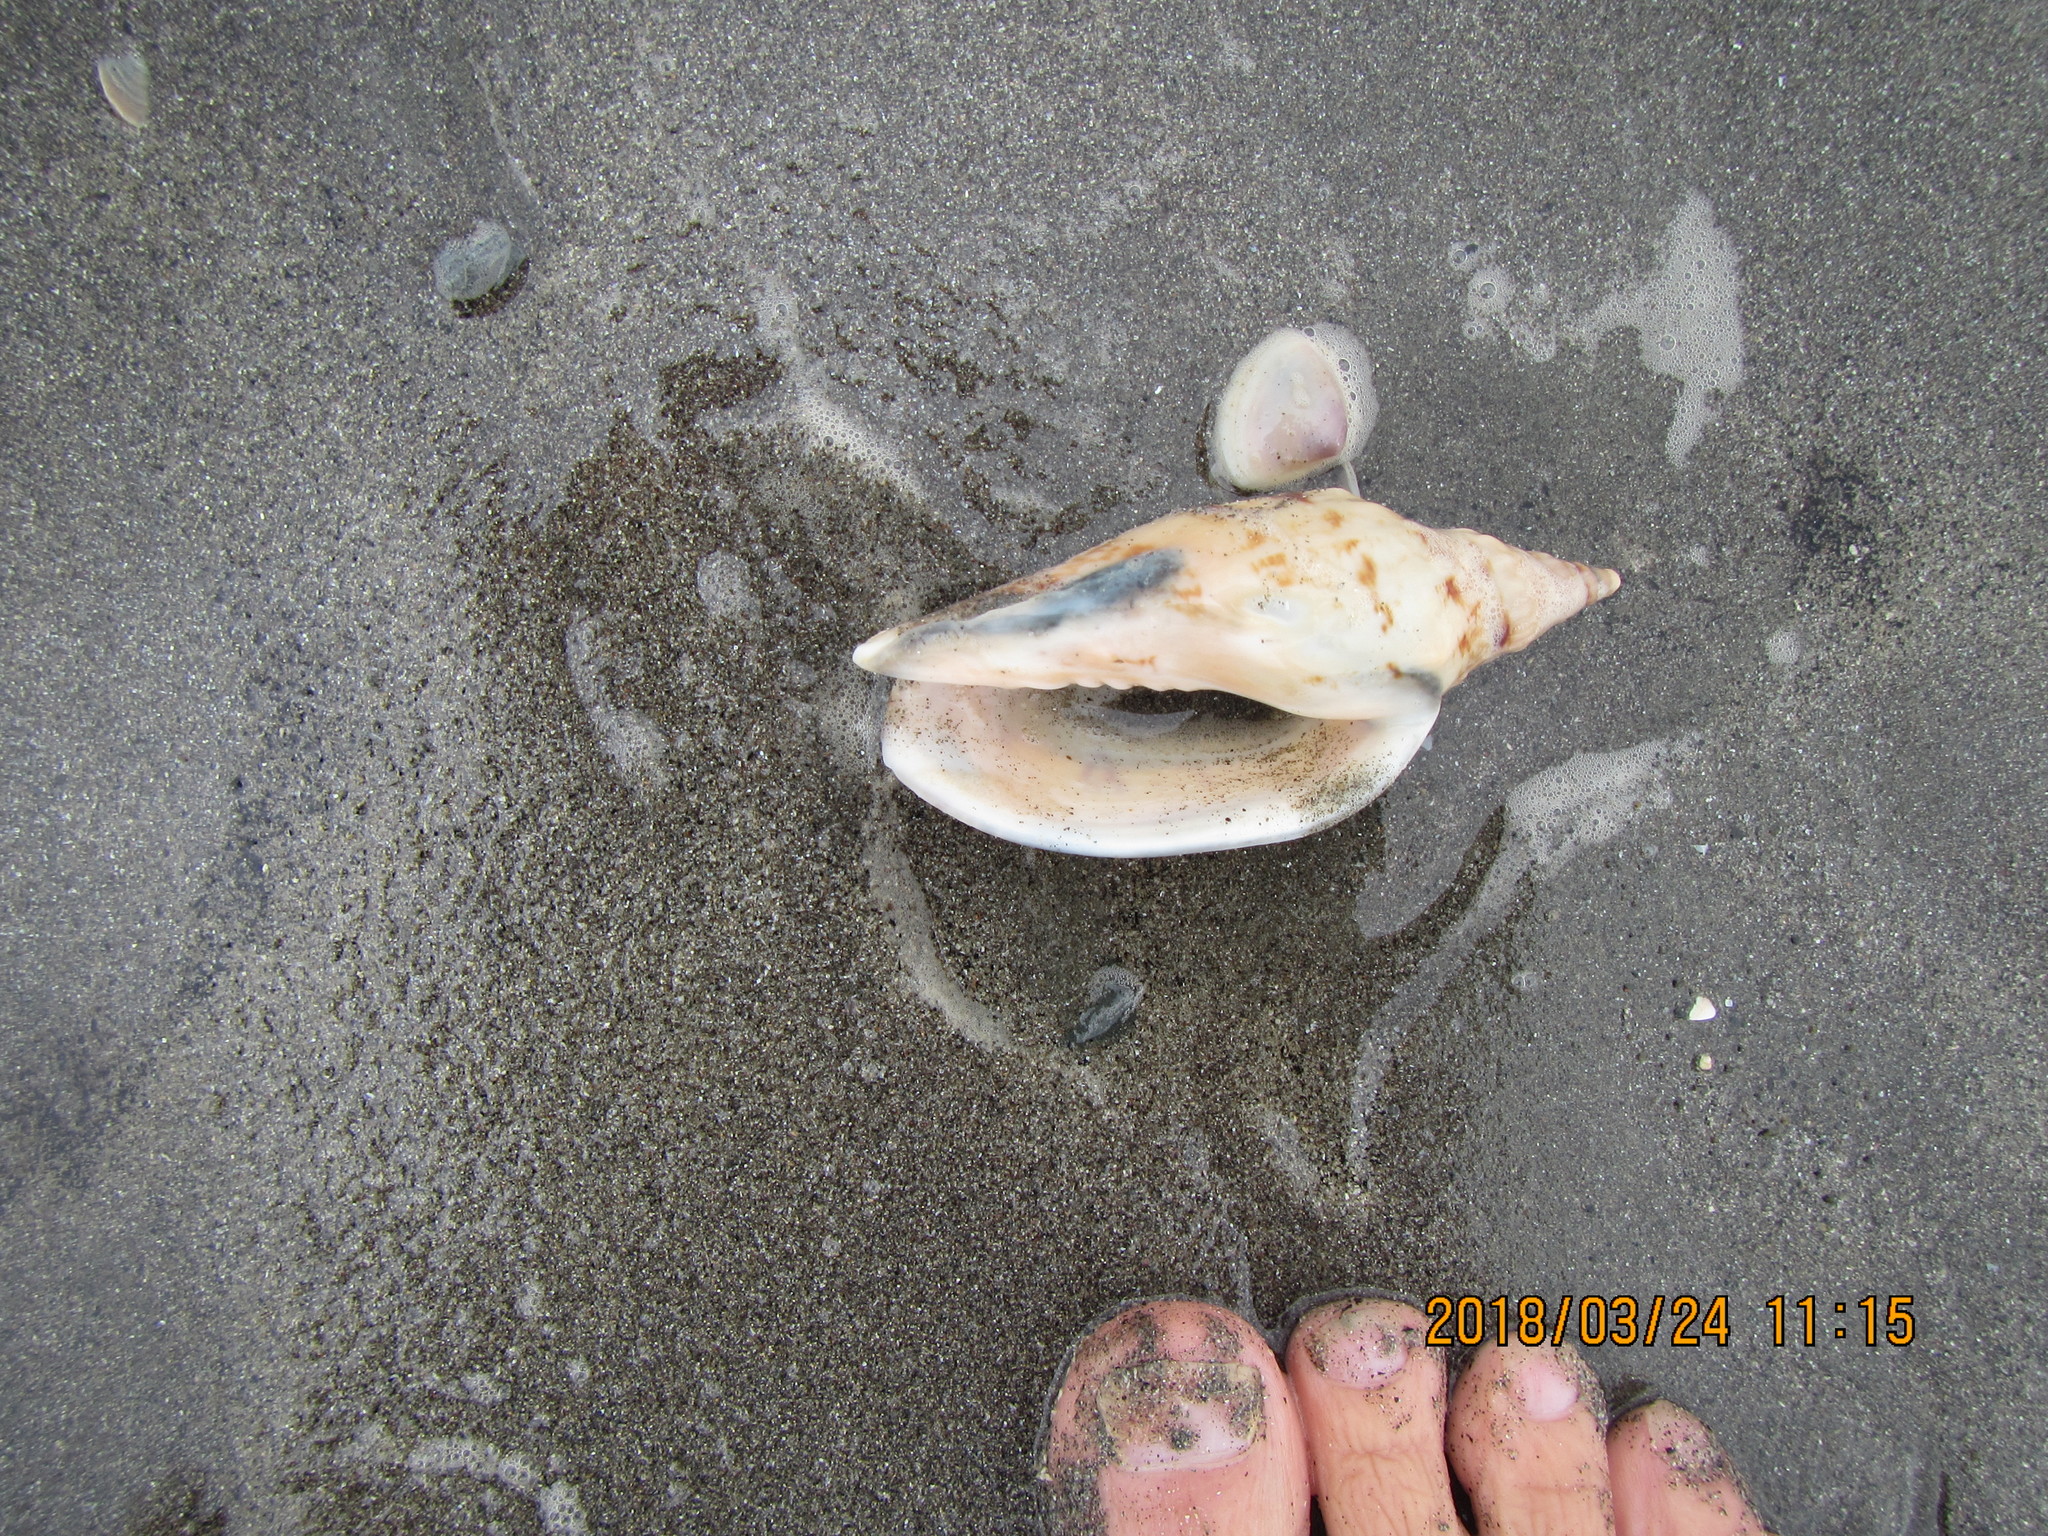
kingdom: Animalia
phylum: Mollusca
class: Gastropoda
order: Neogastropoda
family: Volutidae
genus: Alcithoe
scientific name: Alcithoe arabica
